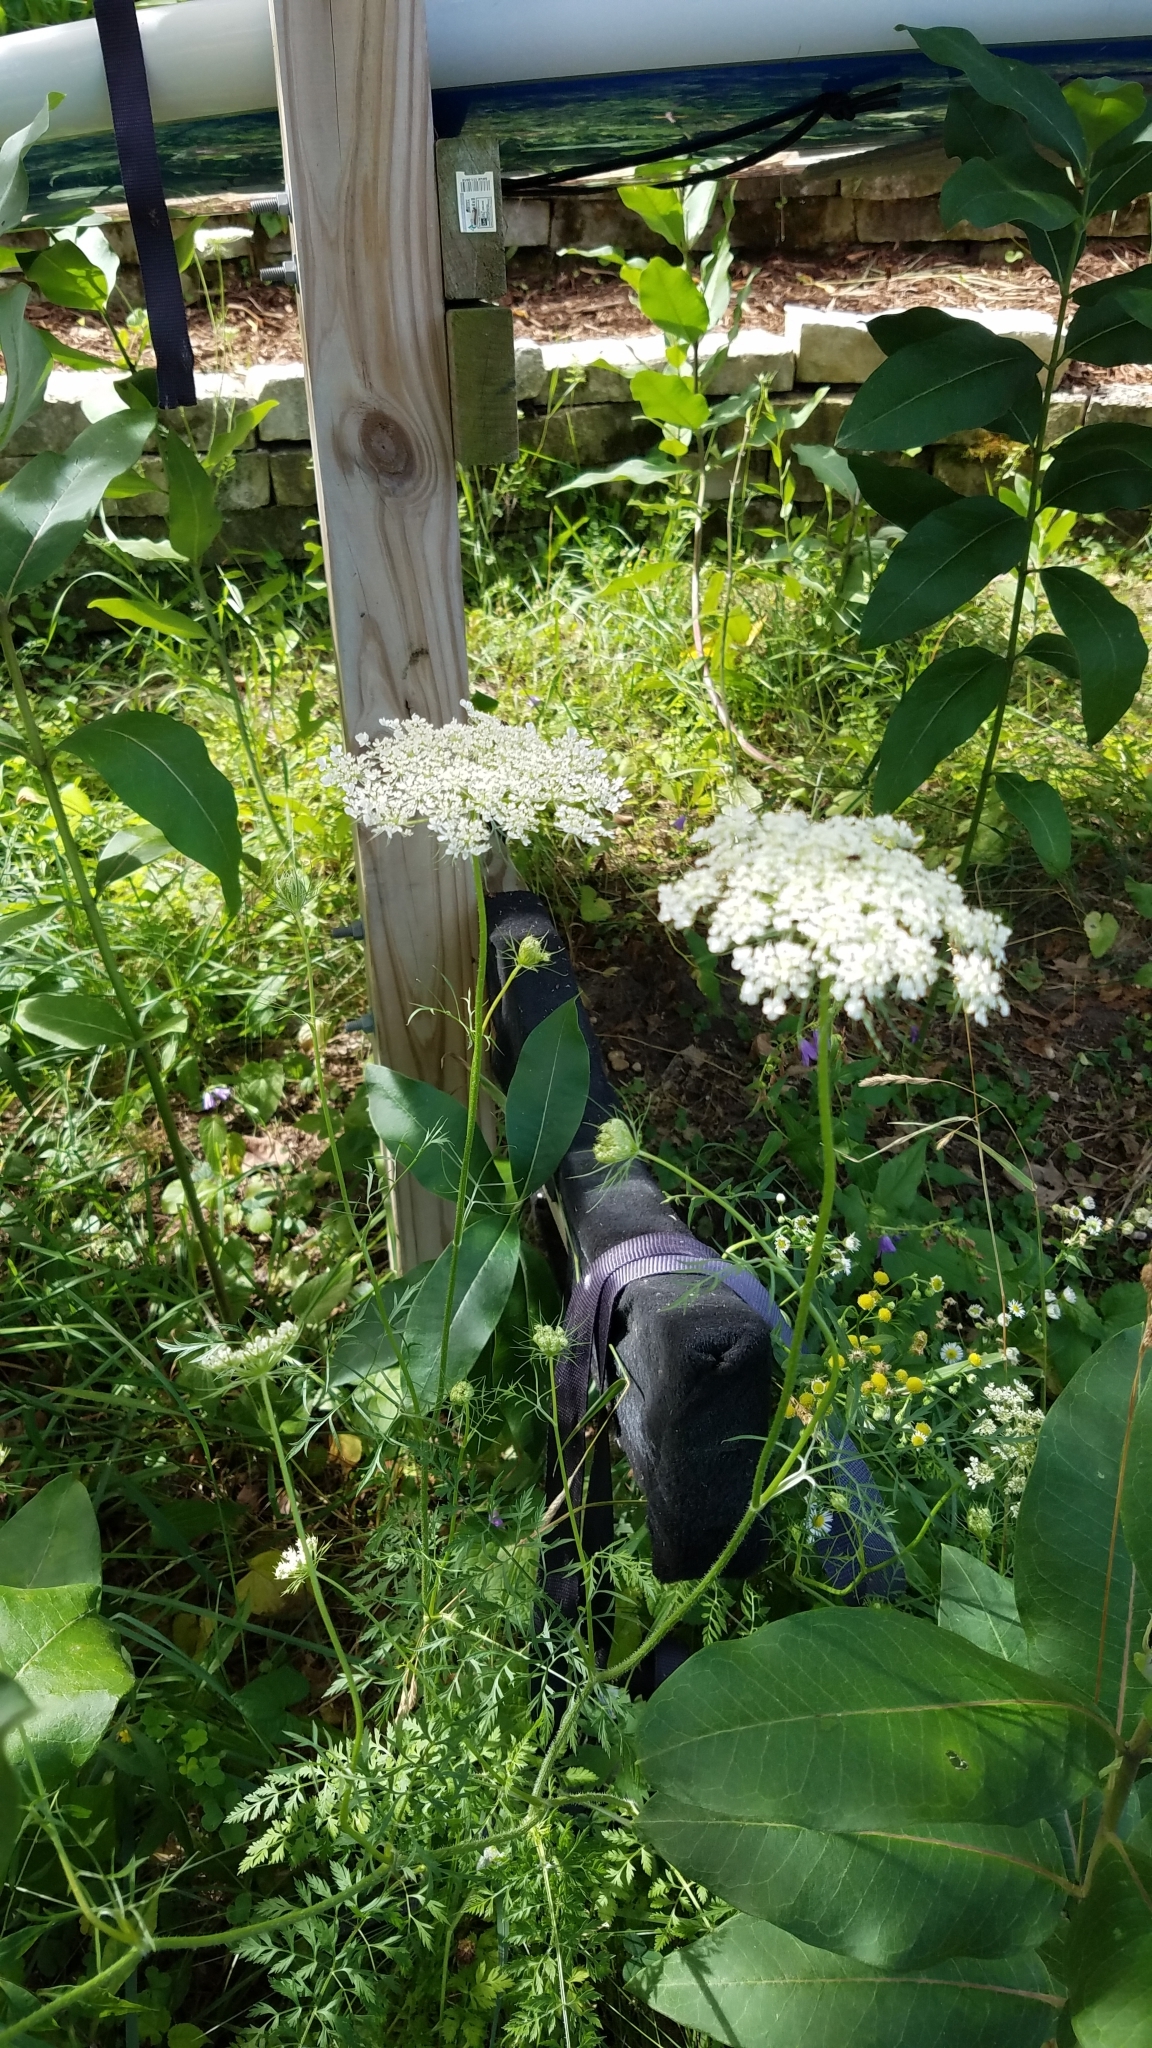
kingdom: Plantae
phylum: Tracheophyta
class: Magnoliopsida
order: Apiales
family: Apiaceae
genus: Daucus
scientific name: Daucus carota
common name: Wild carrot
